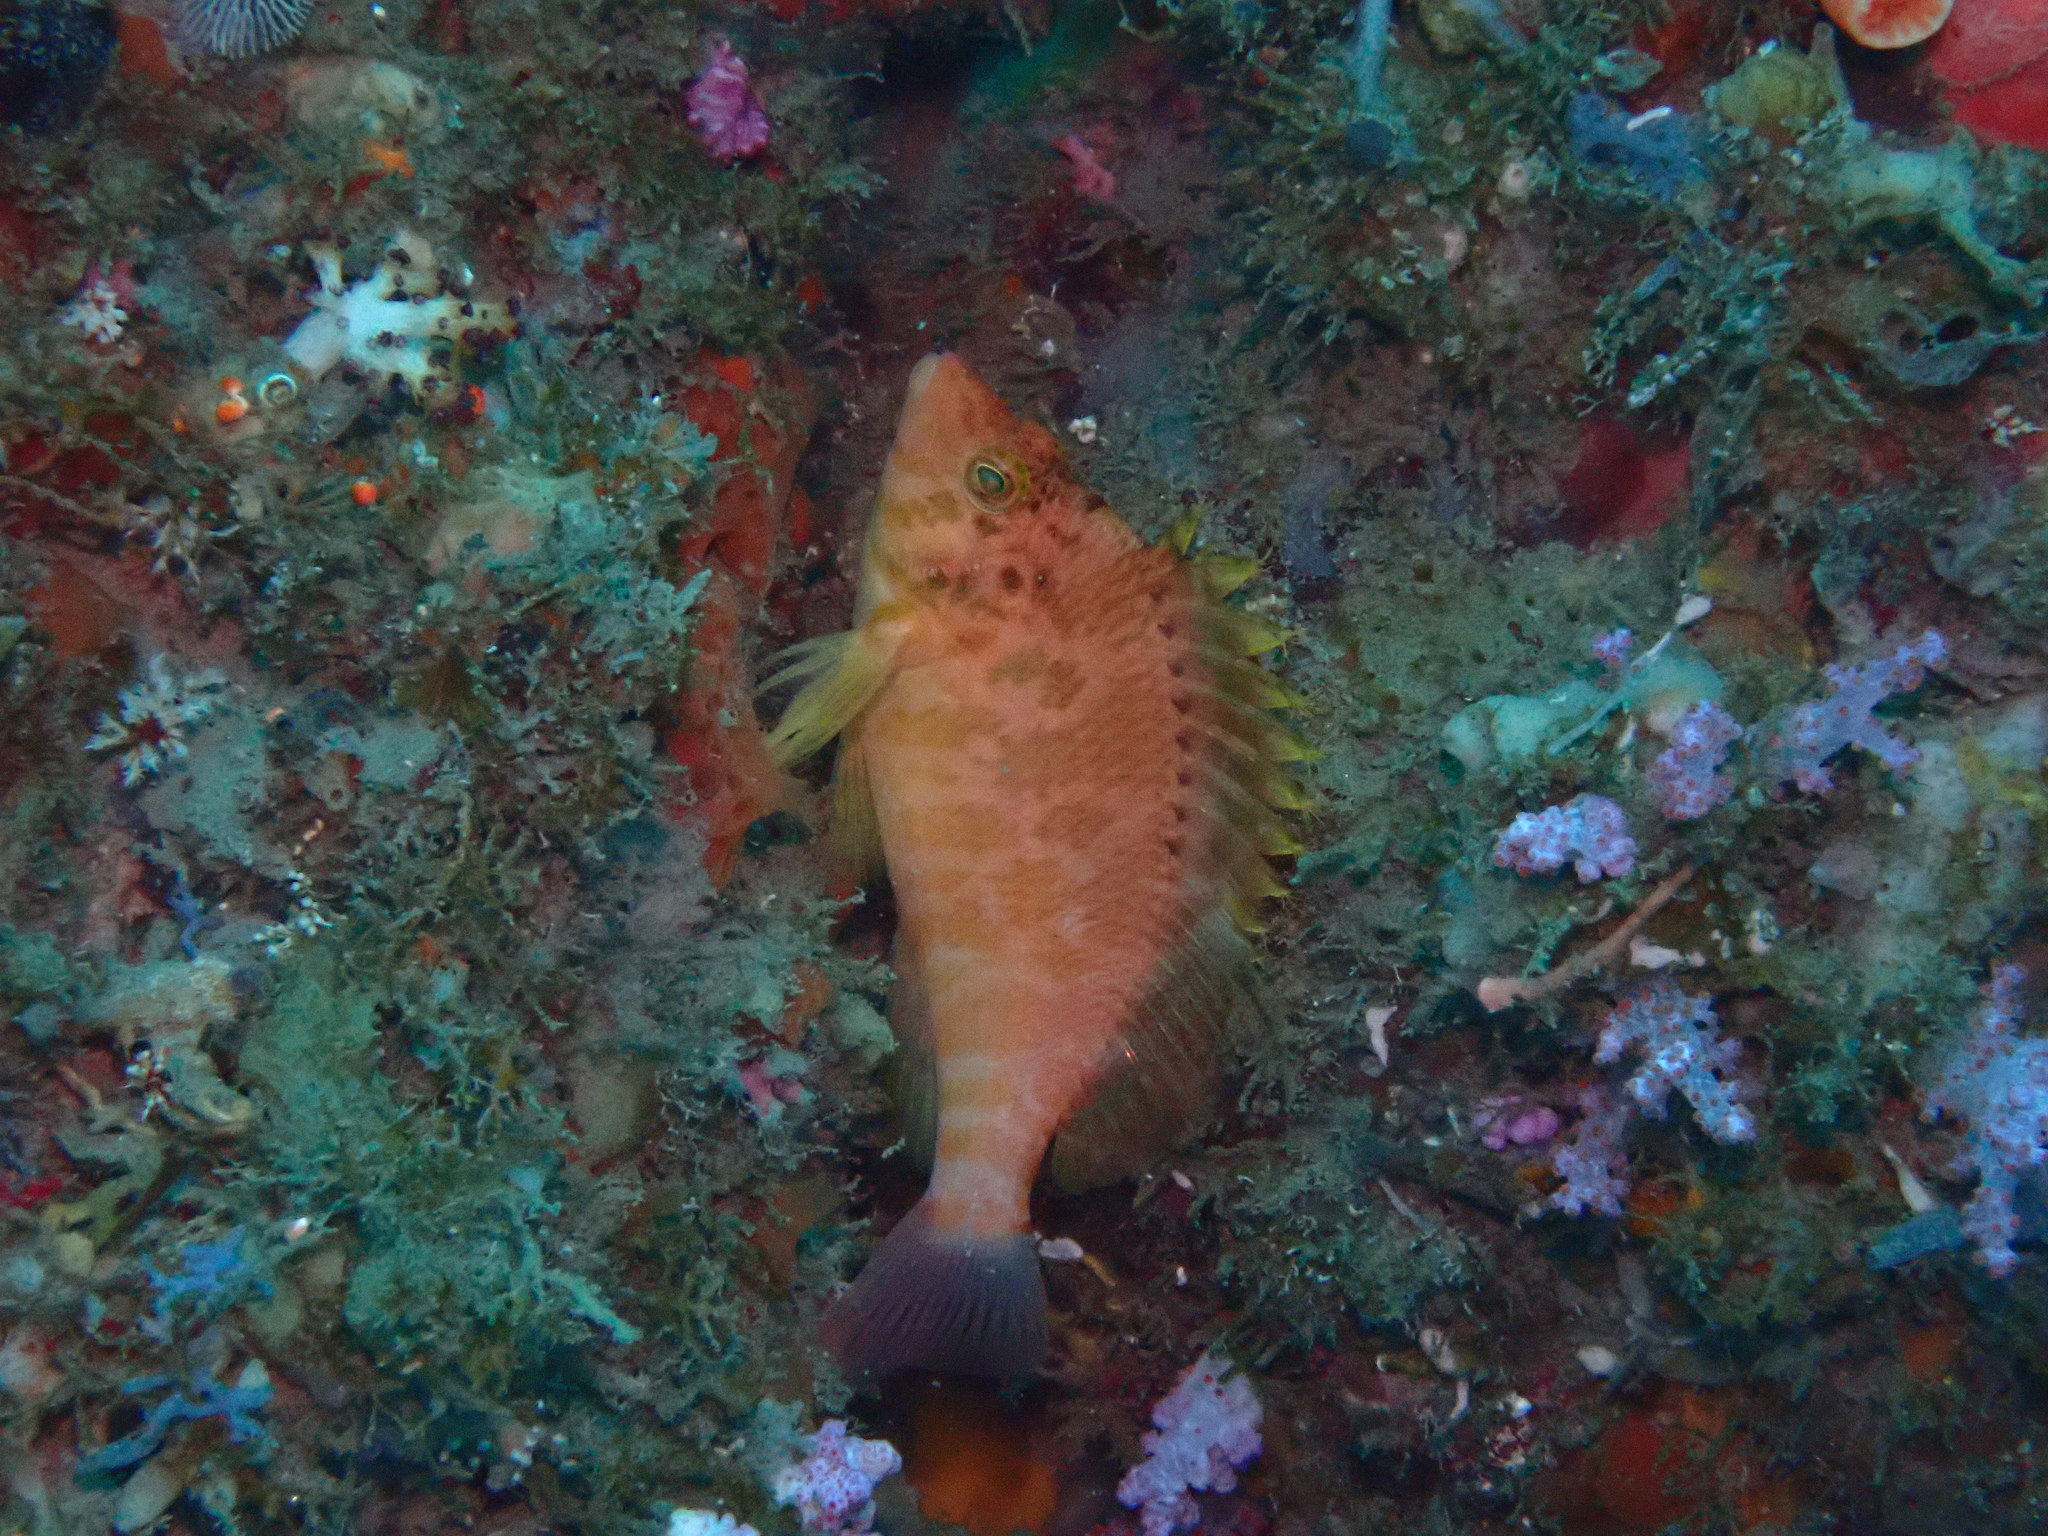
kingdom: Animalia
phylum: Chordata
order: Perciformes
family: Cirrhitidae
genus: Cirrhitichthys
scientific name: Cirrhitichthys aureus
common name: Yellow hawkfish
